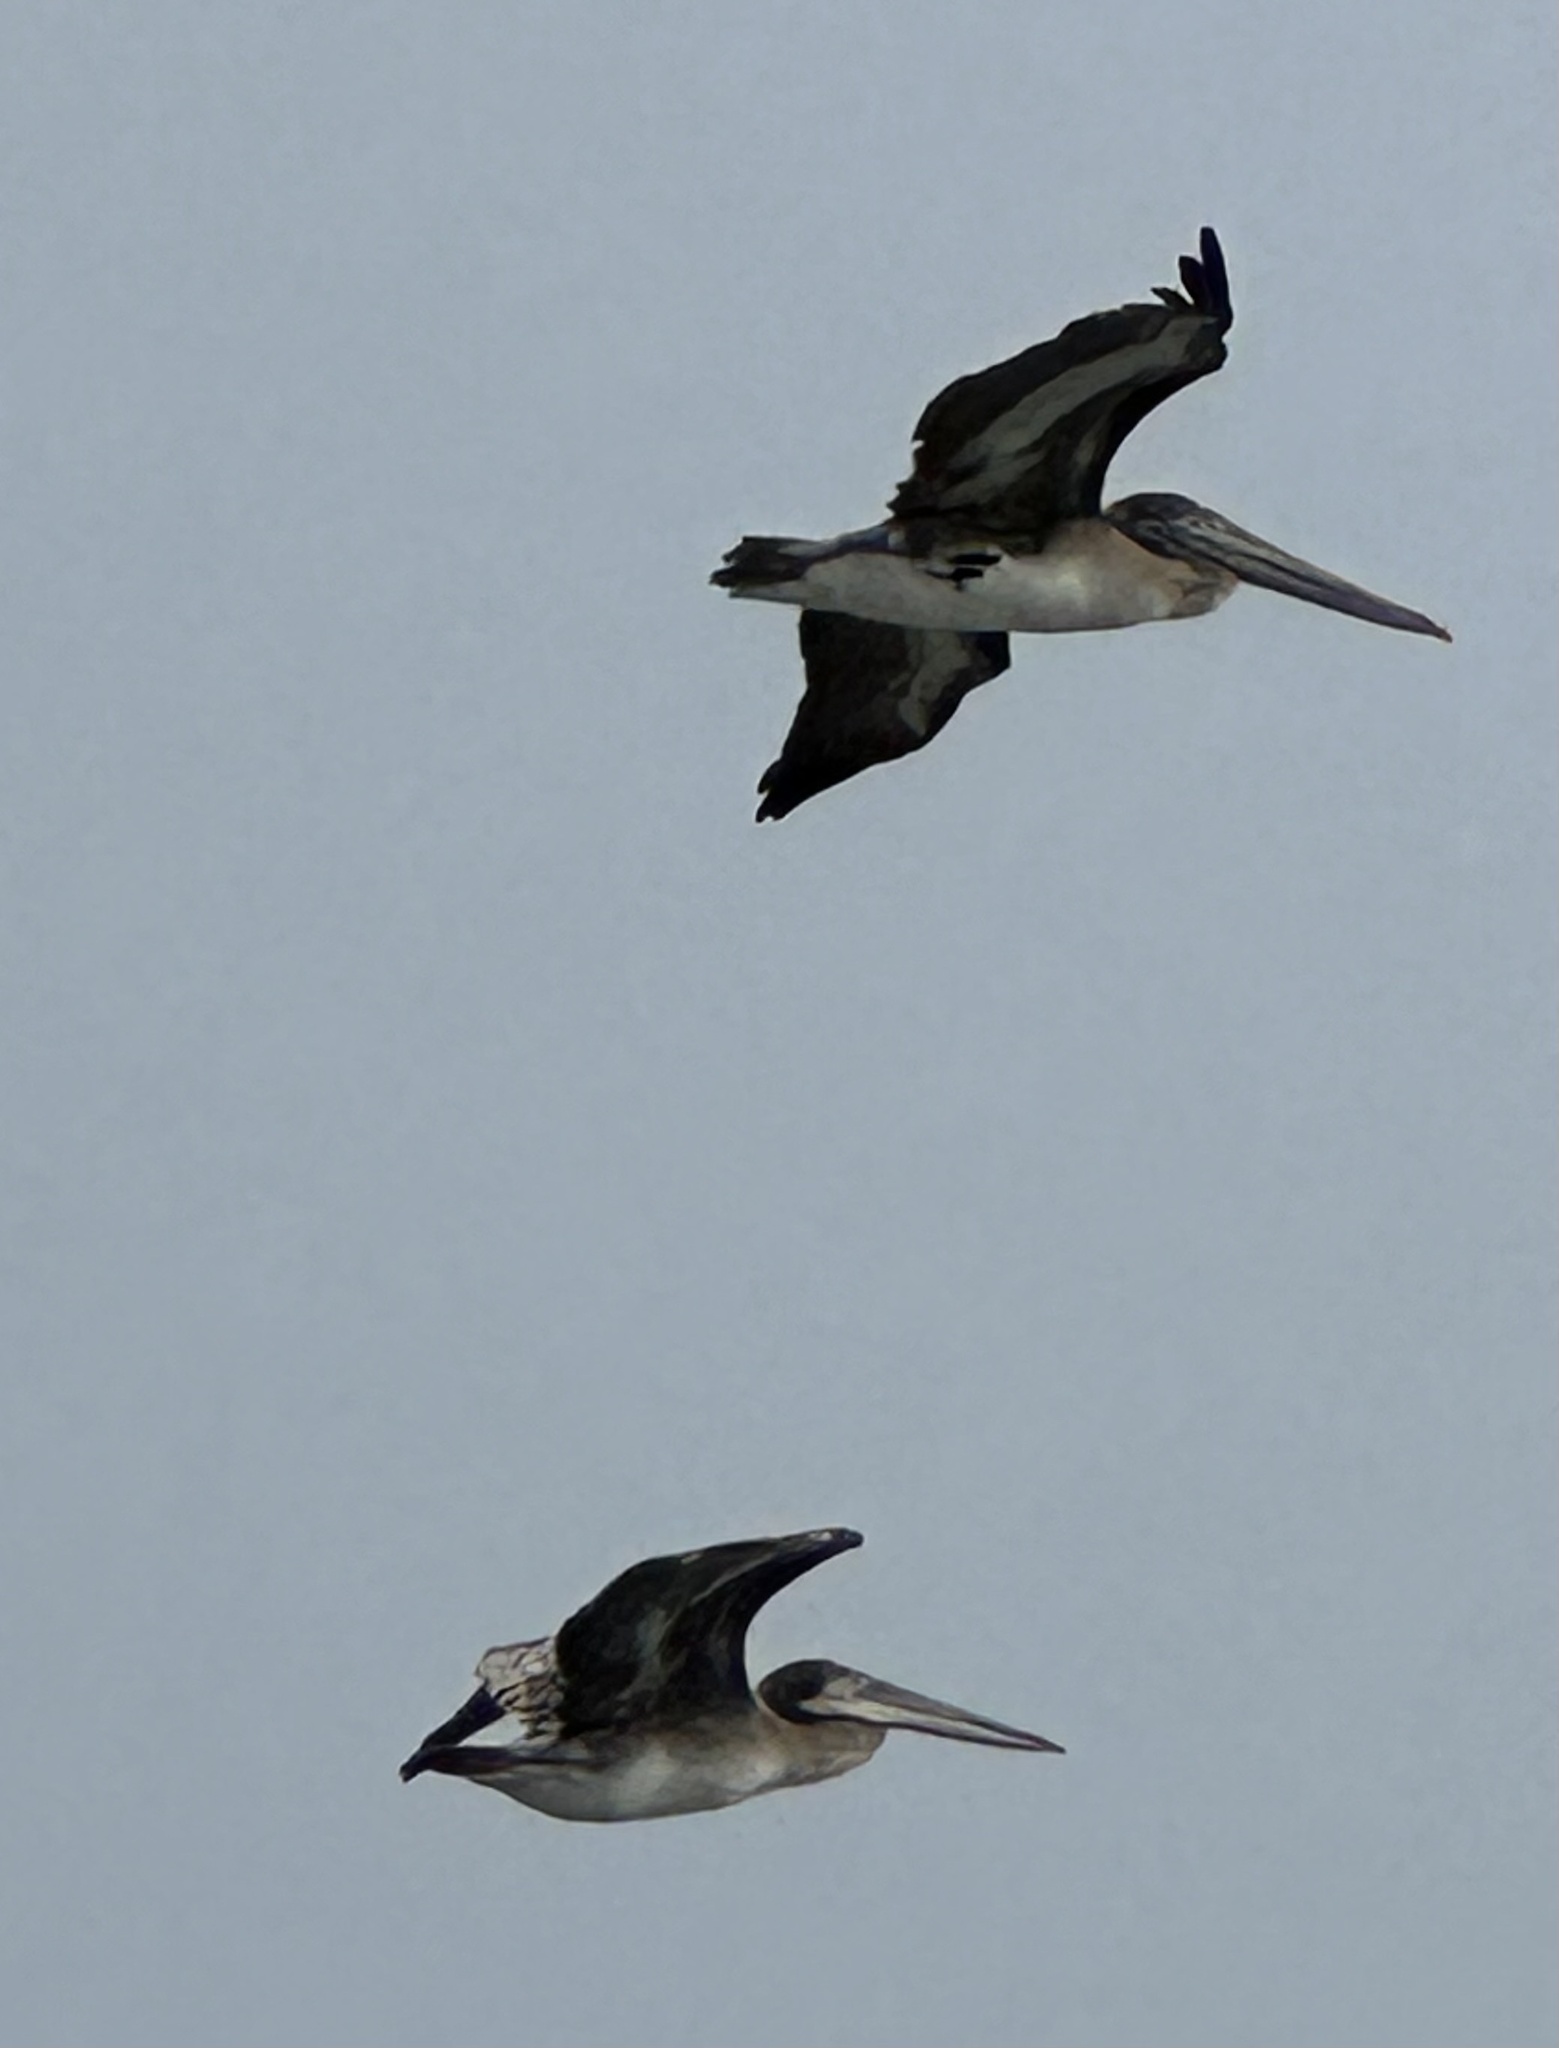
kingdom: Animalia
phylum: Chordata
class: Aves
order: Pelecaniformes
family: Pelecanidae
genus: Pelecanus
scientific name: Pelecanus occidentalis
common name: Brown pelican
